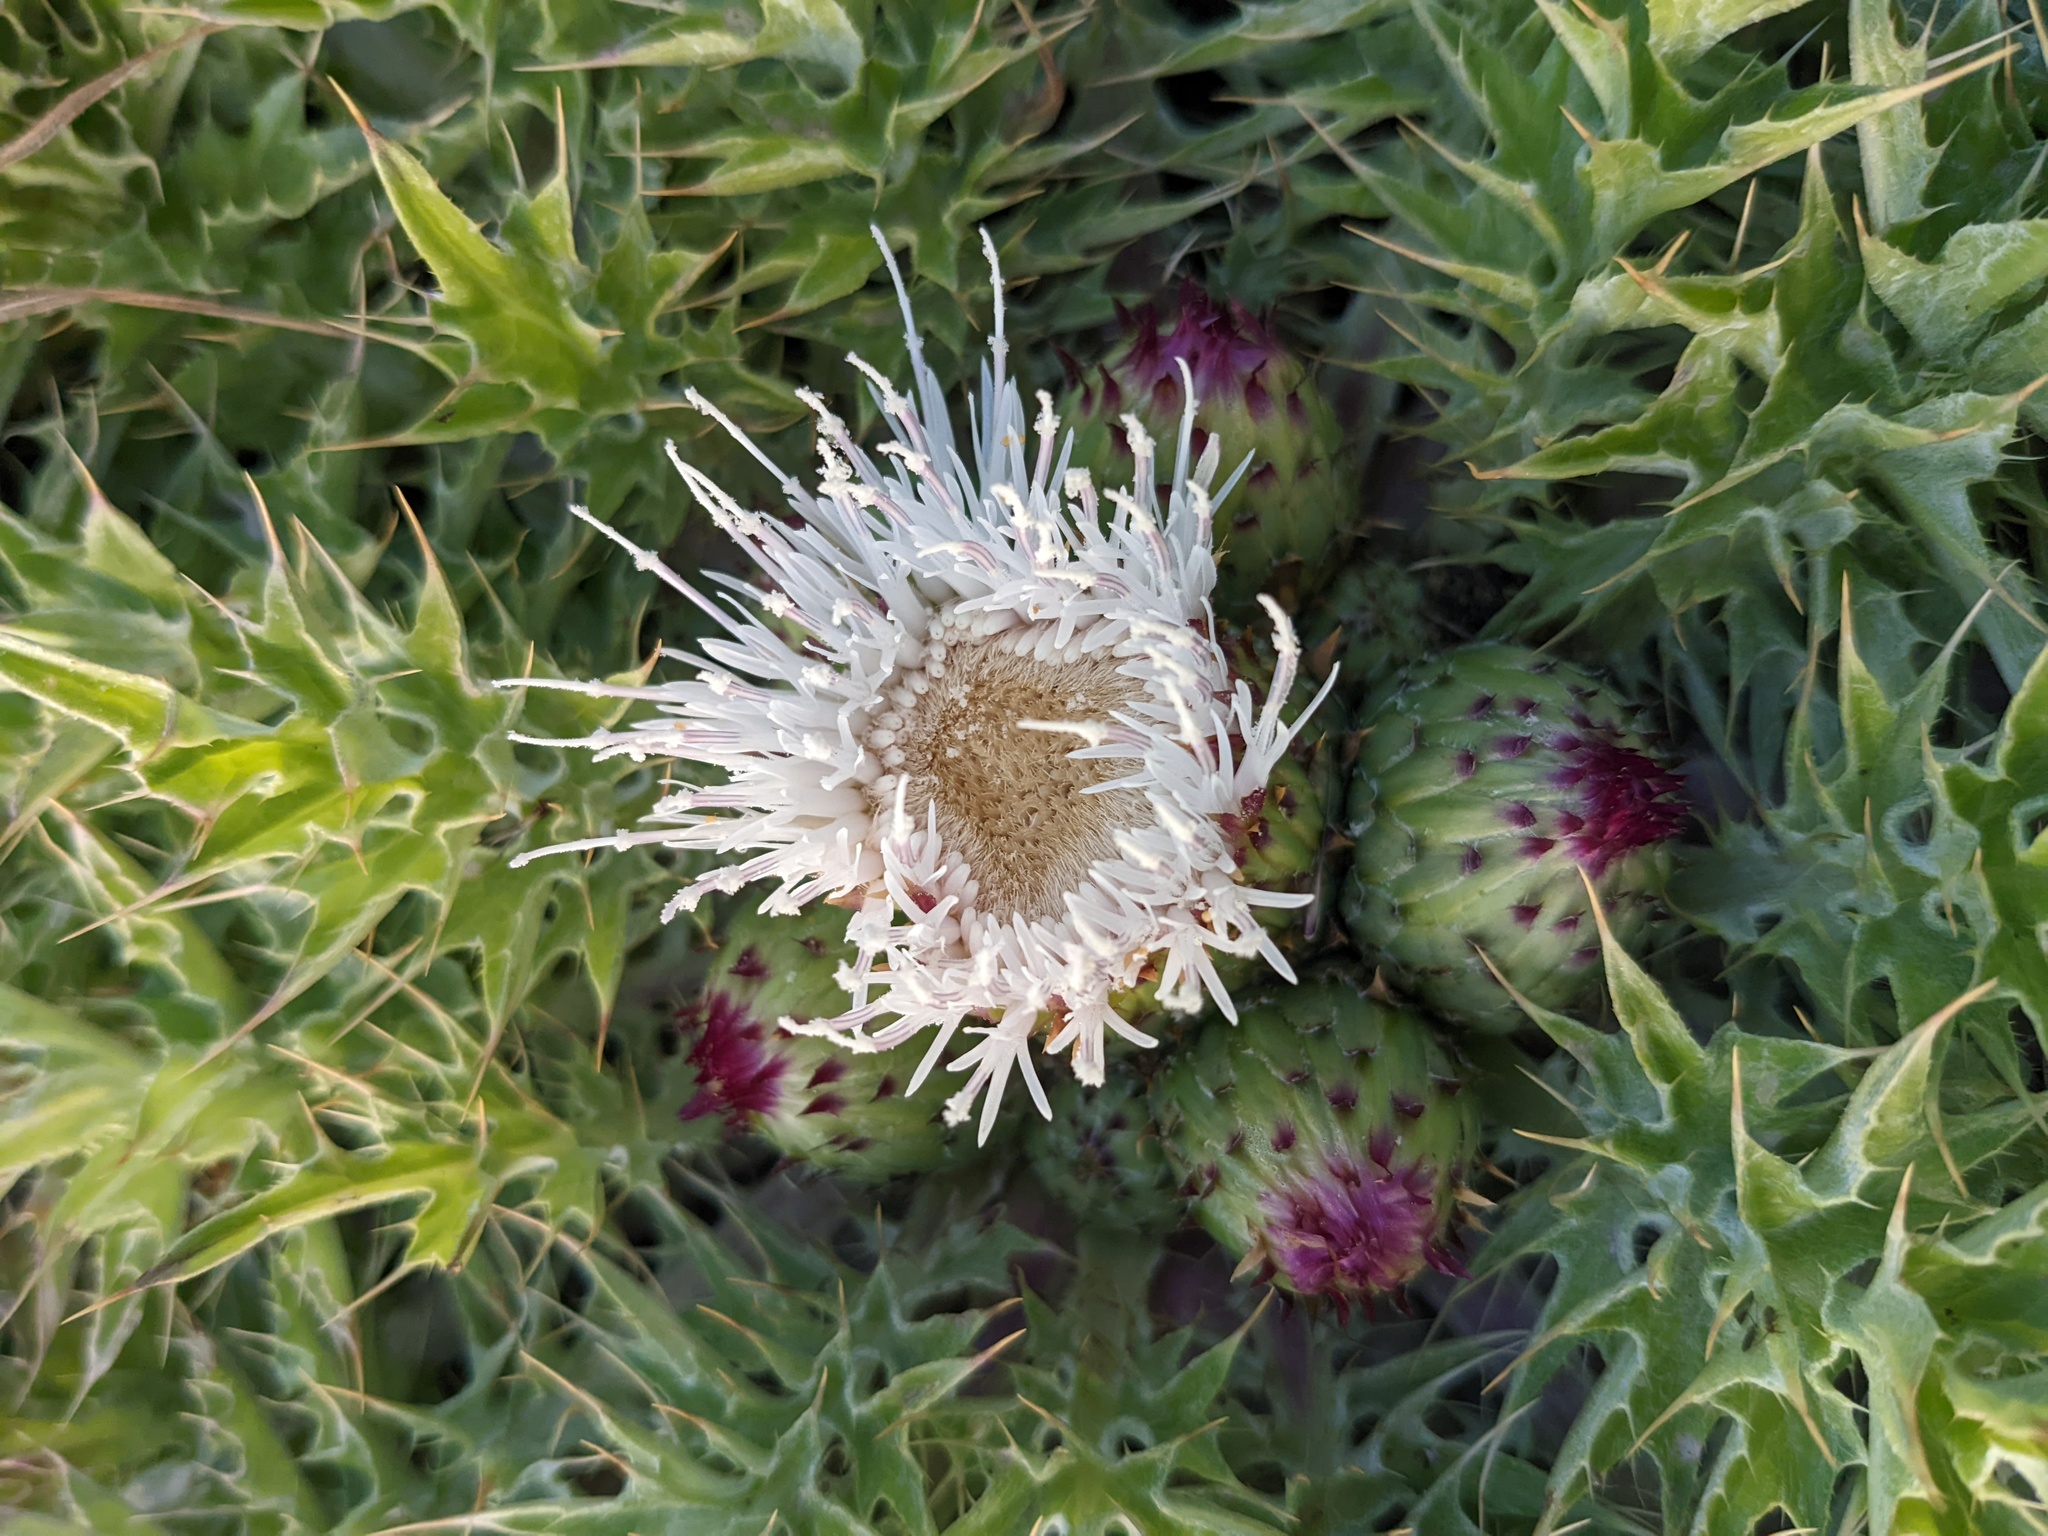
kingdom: Plantae
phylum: Tracheophyta
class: Magnoliopsida
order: Asterales
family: Asteraceae
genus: Cirsium
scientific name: Cirsium scariosum
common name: Meadow thistle
